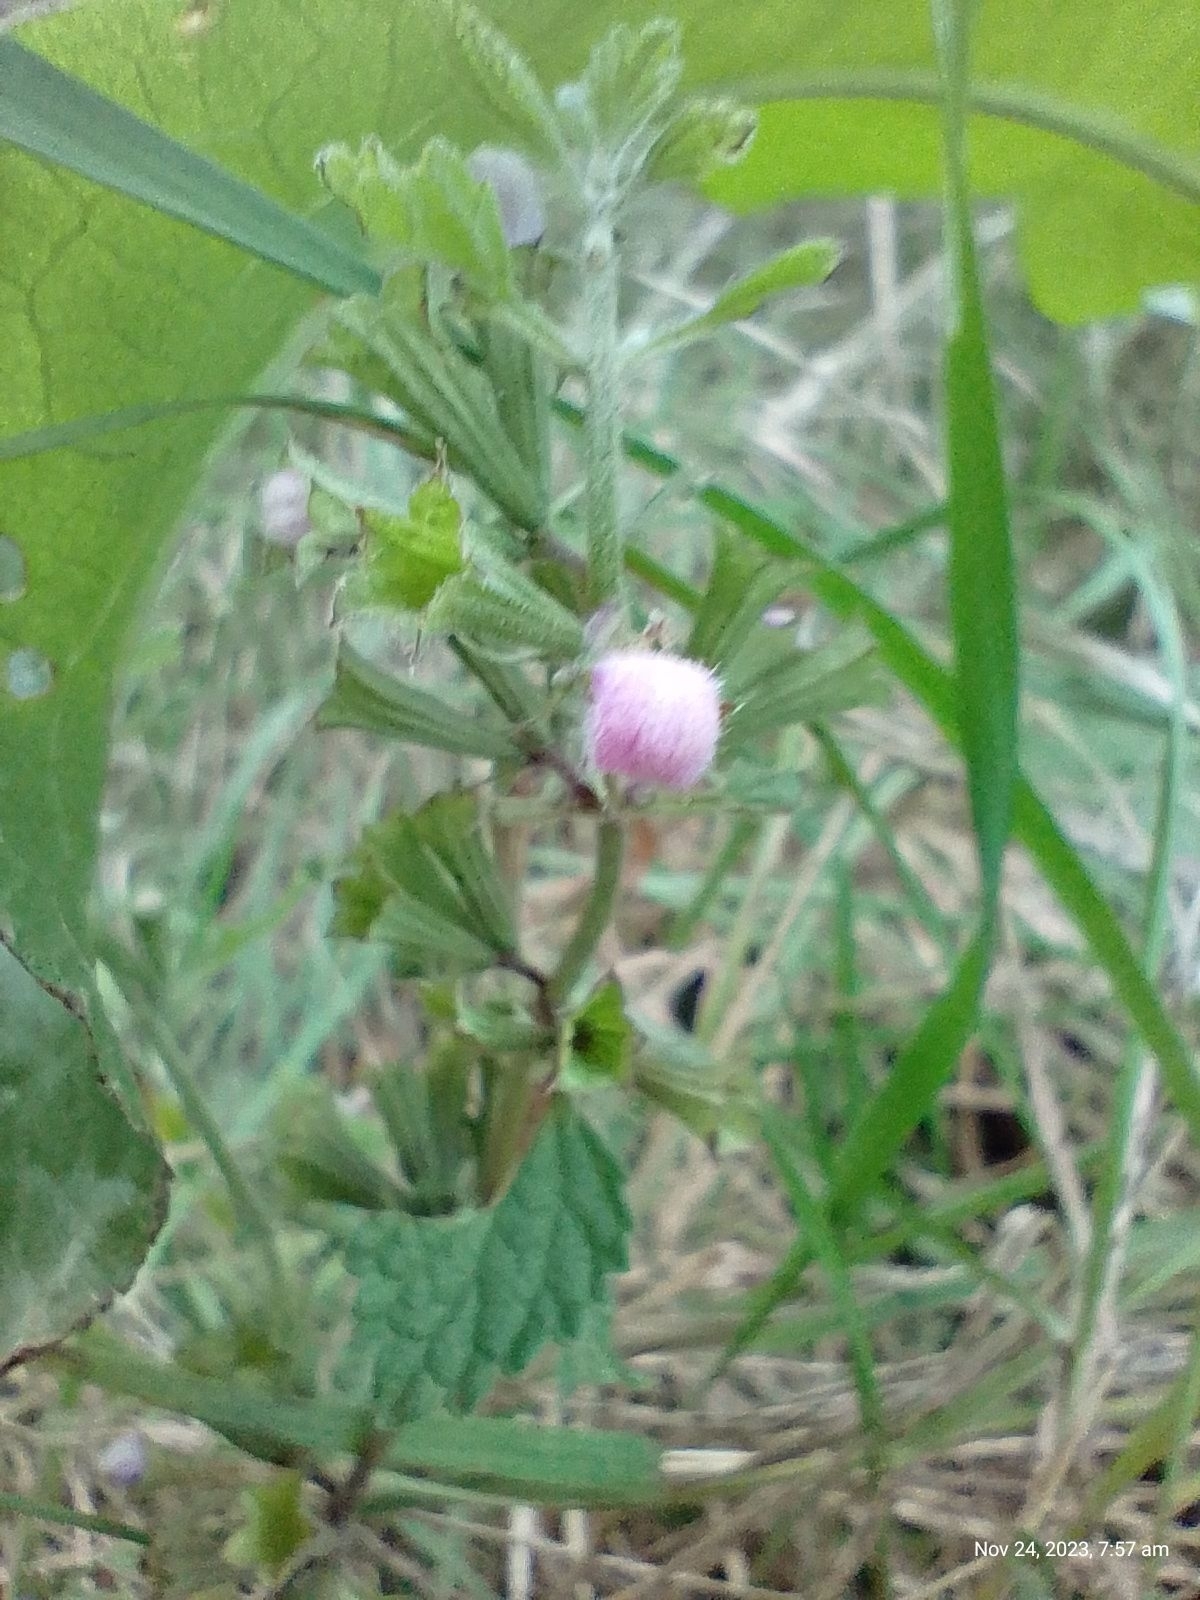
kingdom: Plantae
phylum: Tracheophyta
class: Magnoliopsida
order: Lamiales
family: Lamiaceae
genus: Ballota
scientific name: Ballota nigra
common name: Black horehound
